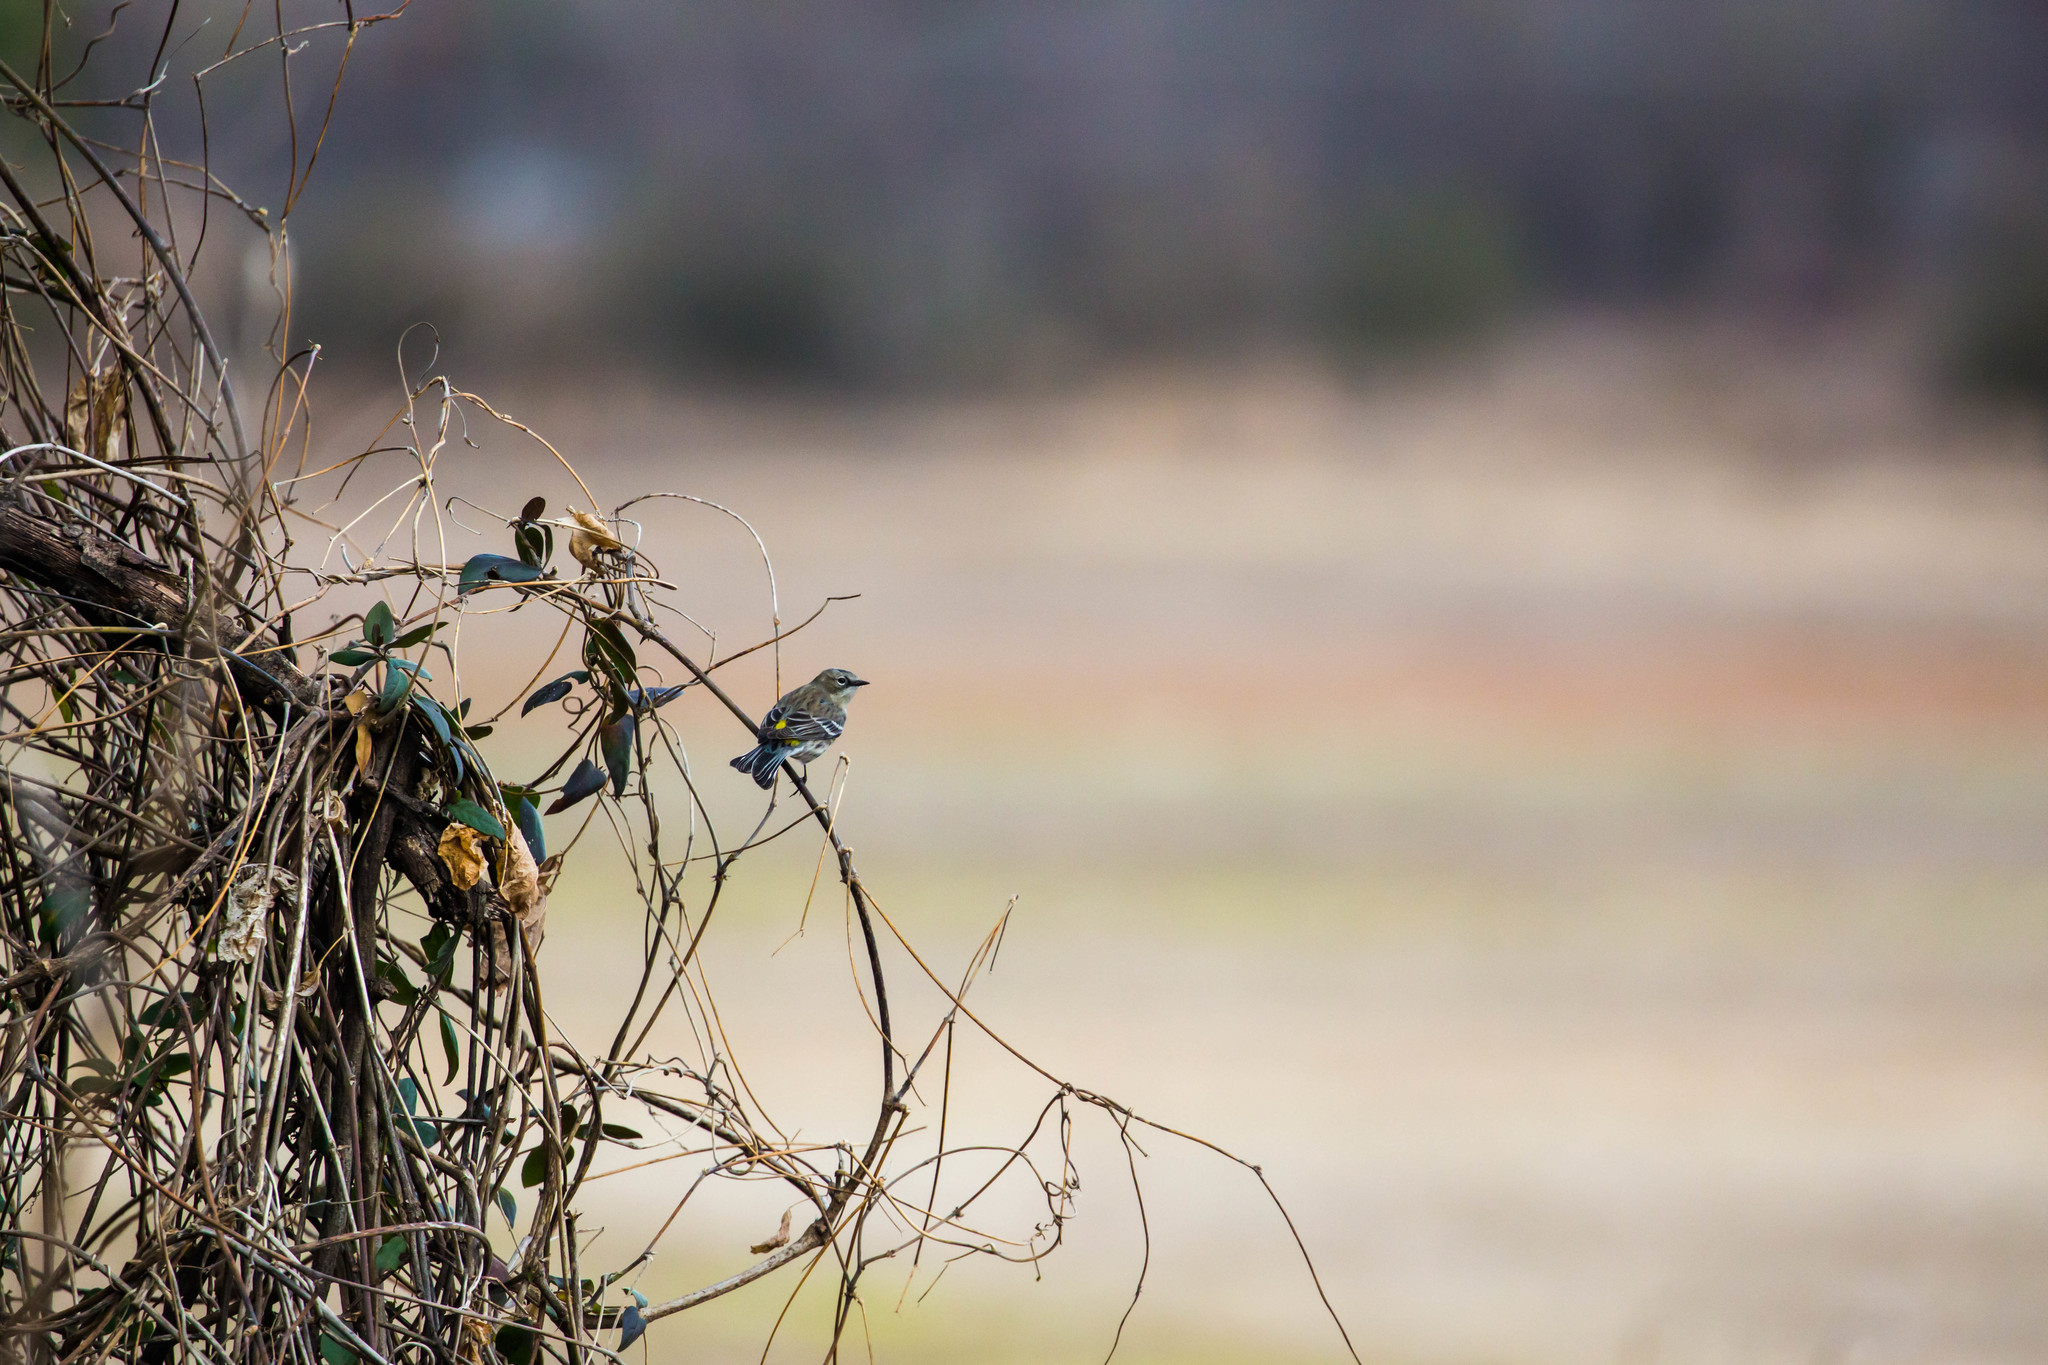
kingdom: Animalia
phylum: Chordata
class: Aves
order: Passeriformes
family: Parulidae
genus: Setophaga
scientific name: Setophaga coronata
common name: Myrtle warbler
